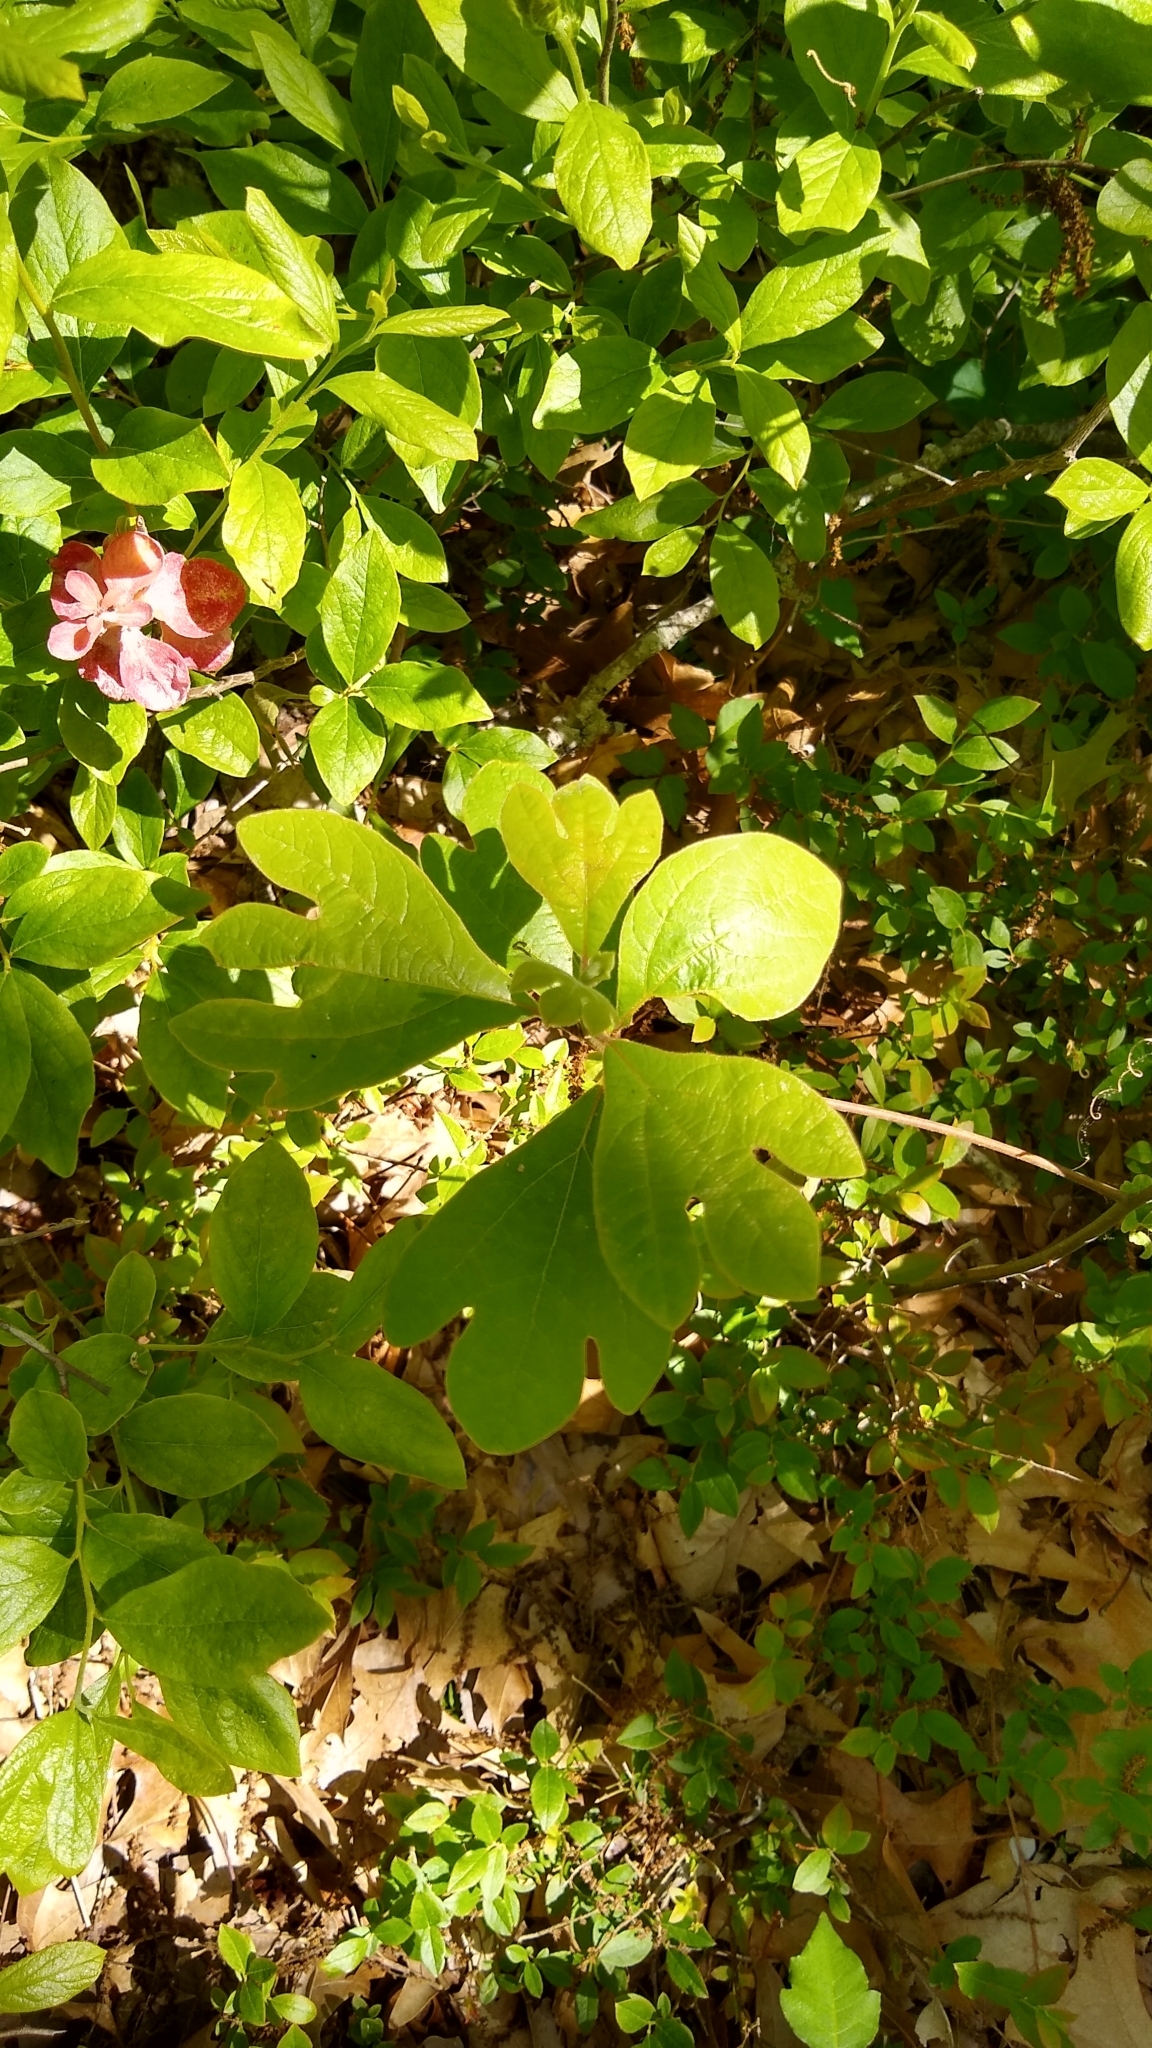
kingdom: Plantae
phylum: Tracheophyta
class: Magnoliopsida
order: Laurales
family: Lauraceae
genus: Sassafras
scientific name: Sassafras albidum
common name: Sassafras
